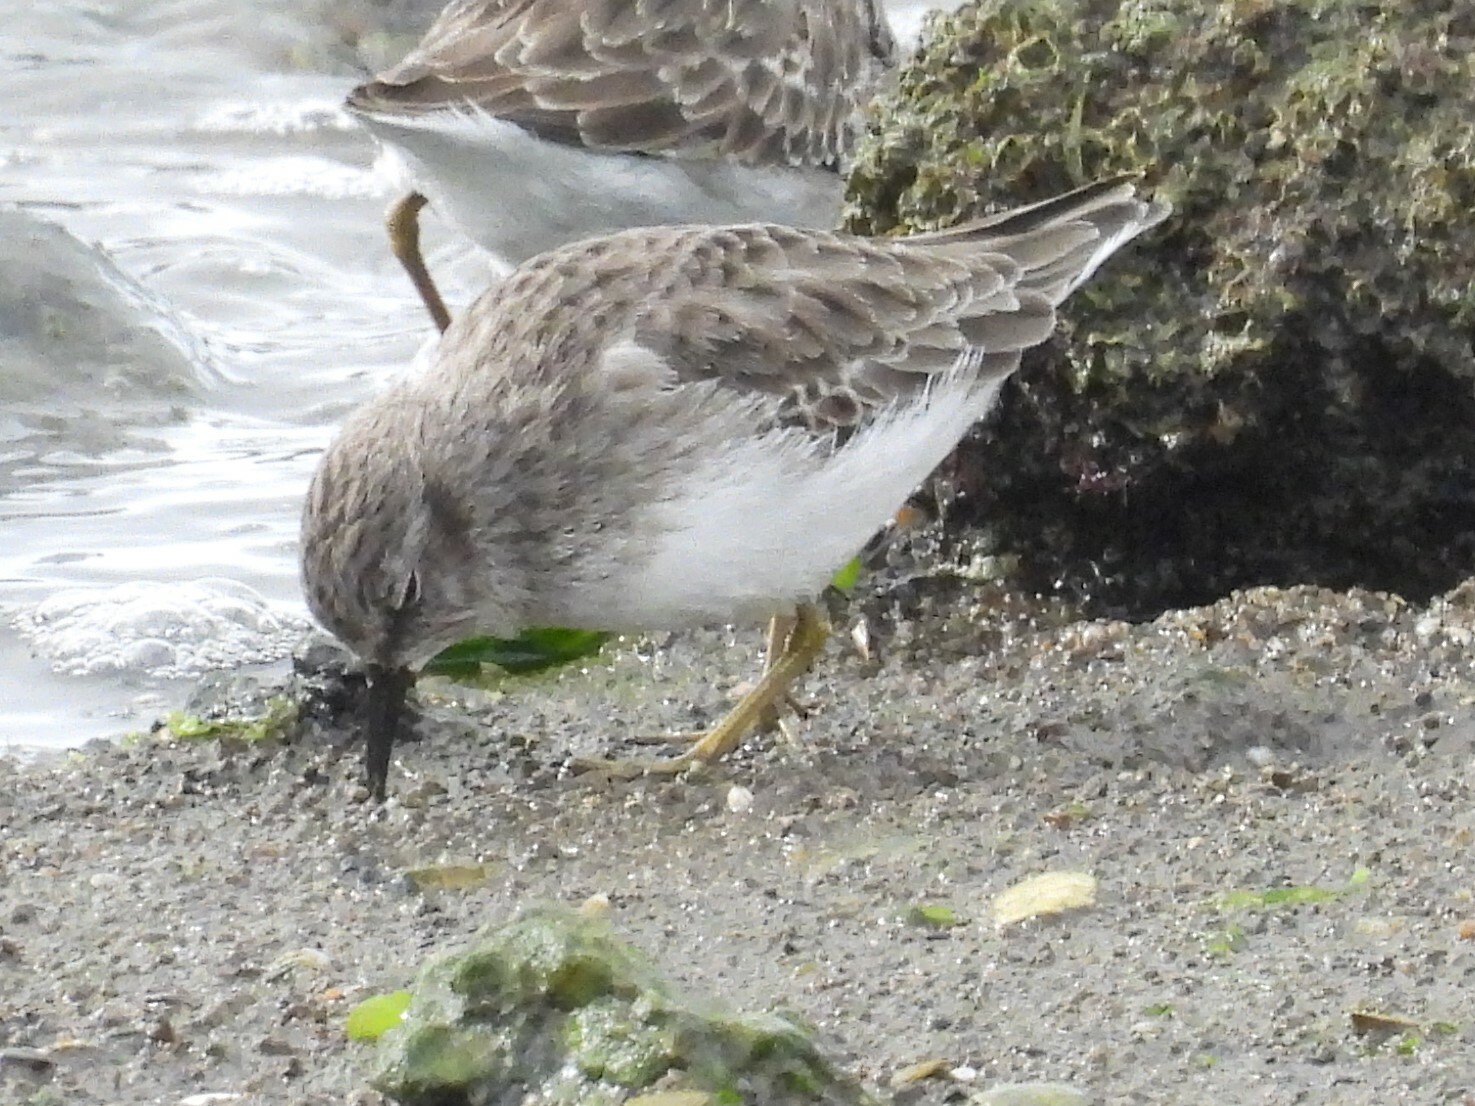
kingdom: Animalia
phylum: Chordata
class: Aves
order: Charadriiformes
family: Scolopacidae
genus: Calidris
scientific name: Calidris minutilla
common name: Least sandpiper
